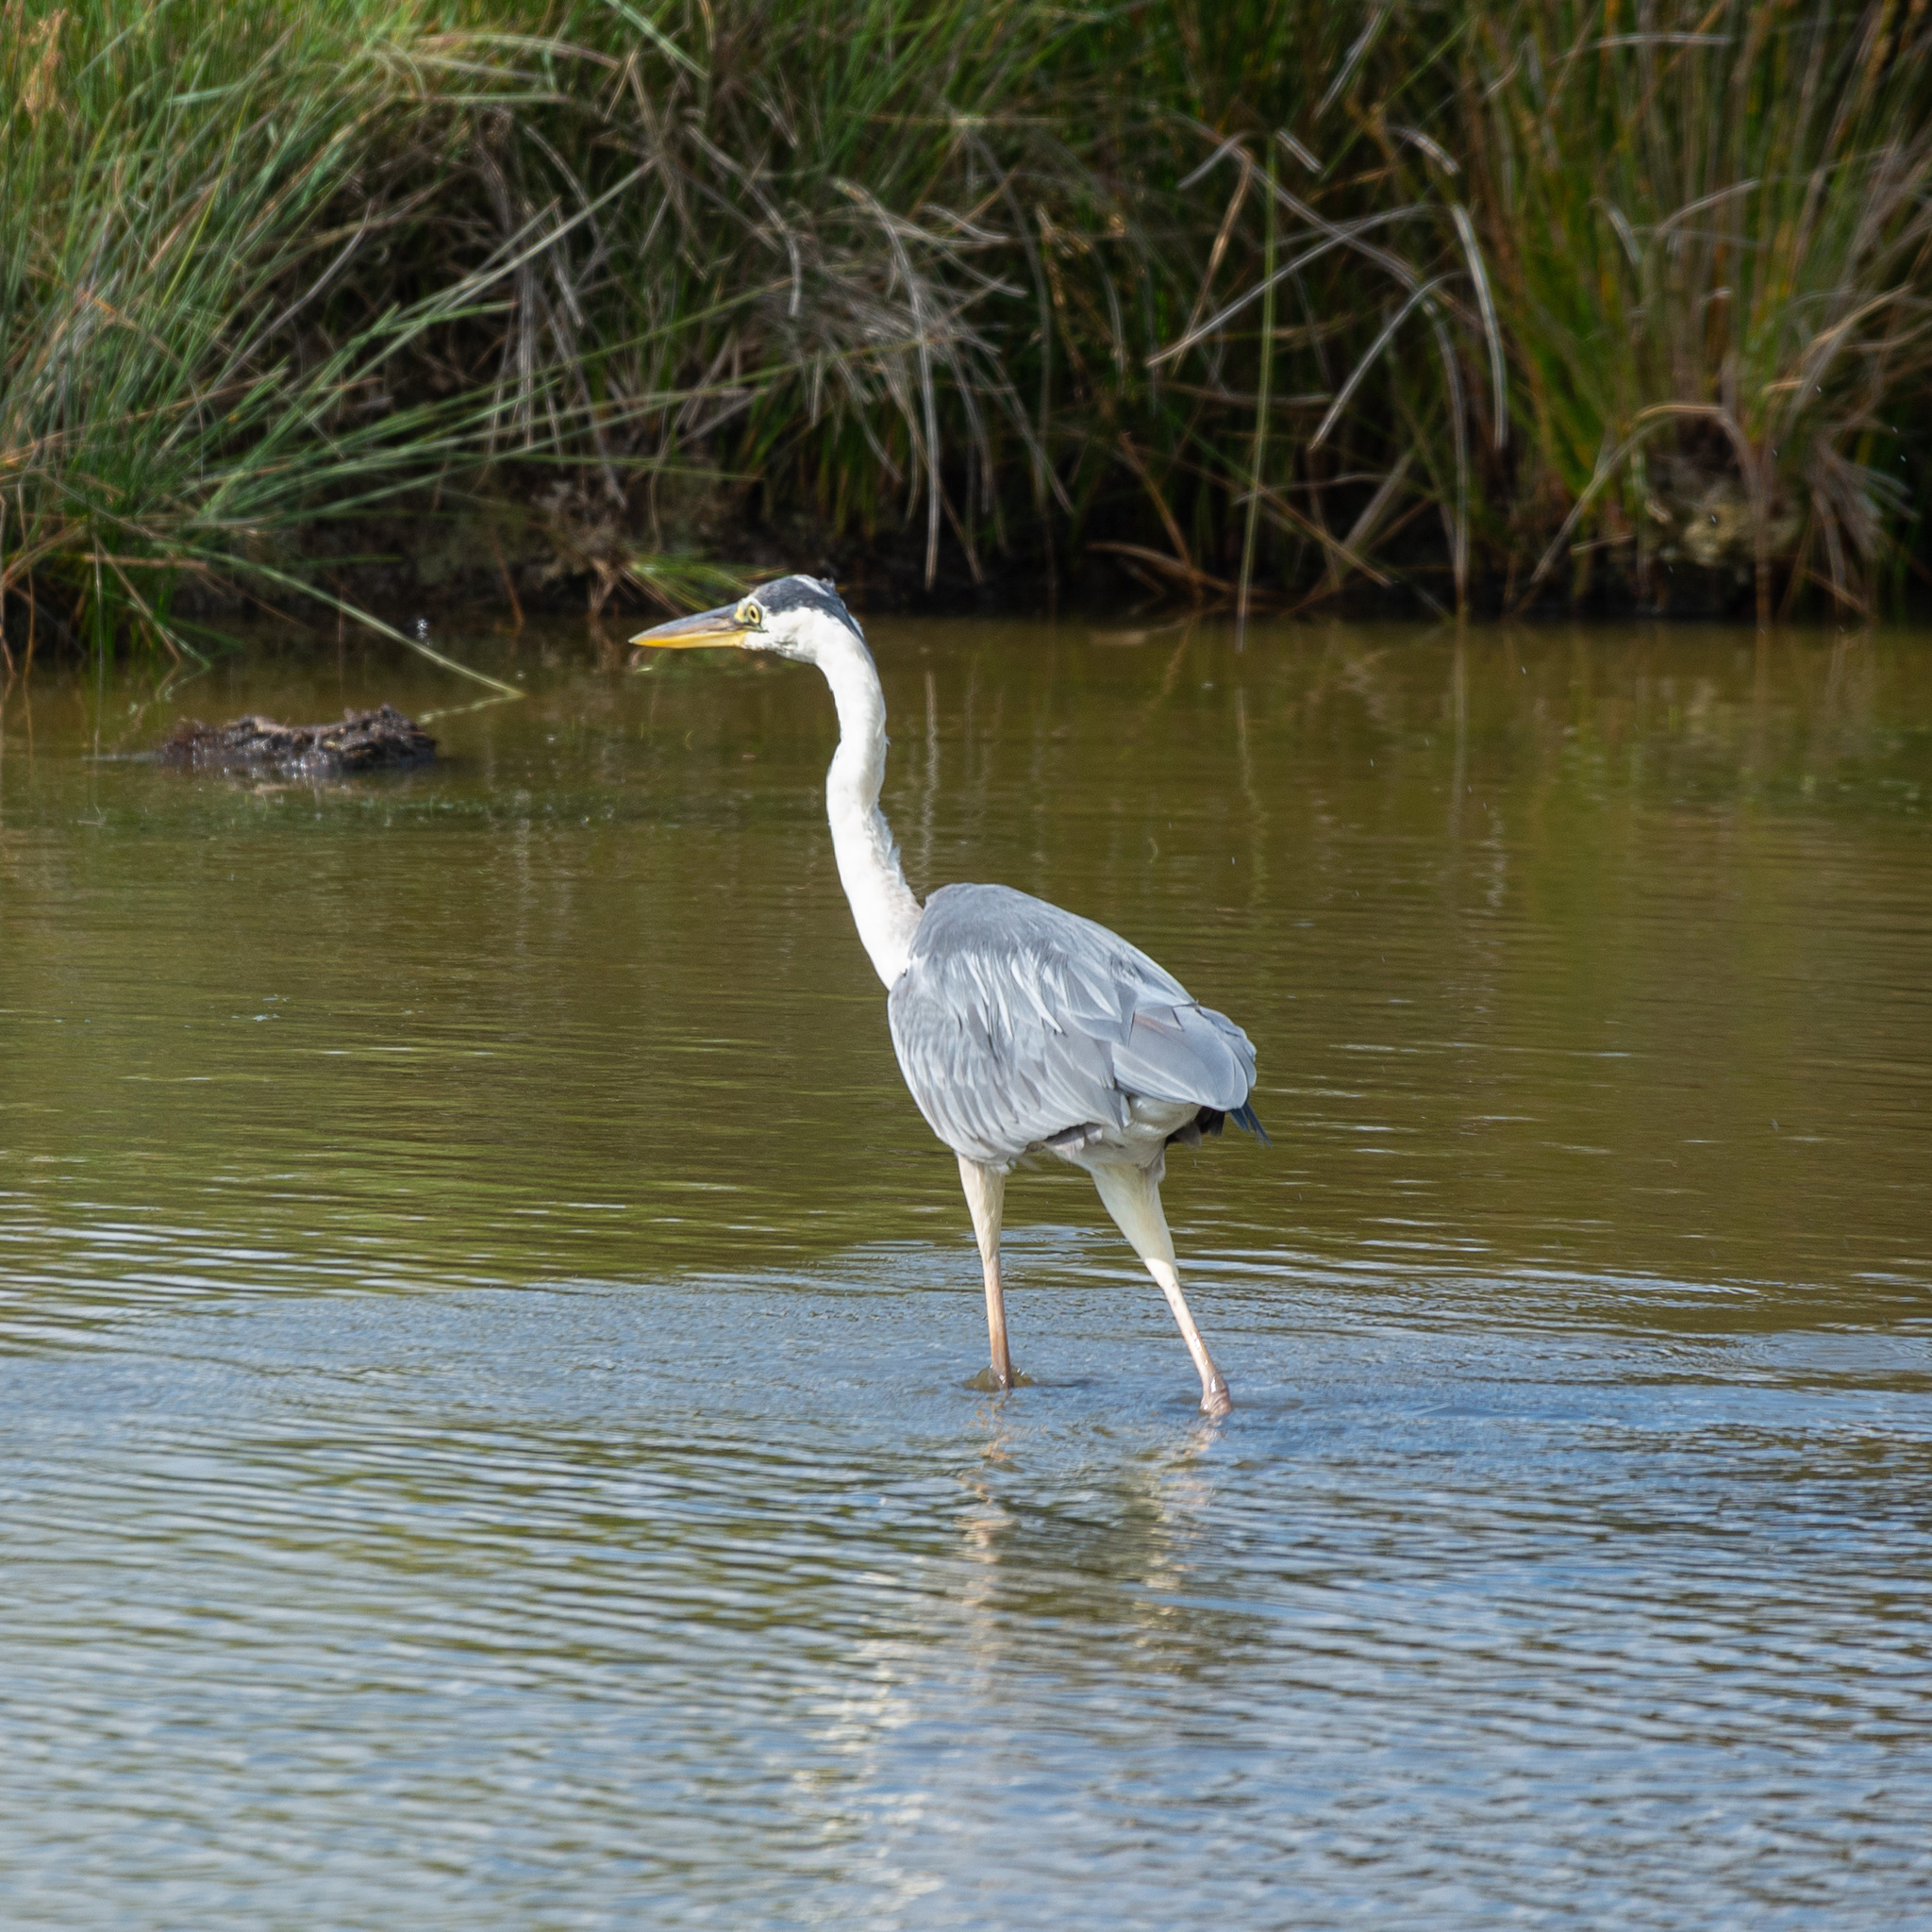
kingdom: Animalia
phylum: Chordata
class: Aves
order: Pelecaniformes
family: Ardeidae
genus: Ardea
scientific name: Ardea cinerea
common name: Grey heron
